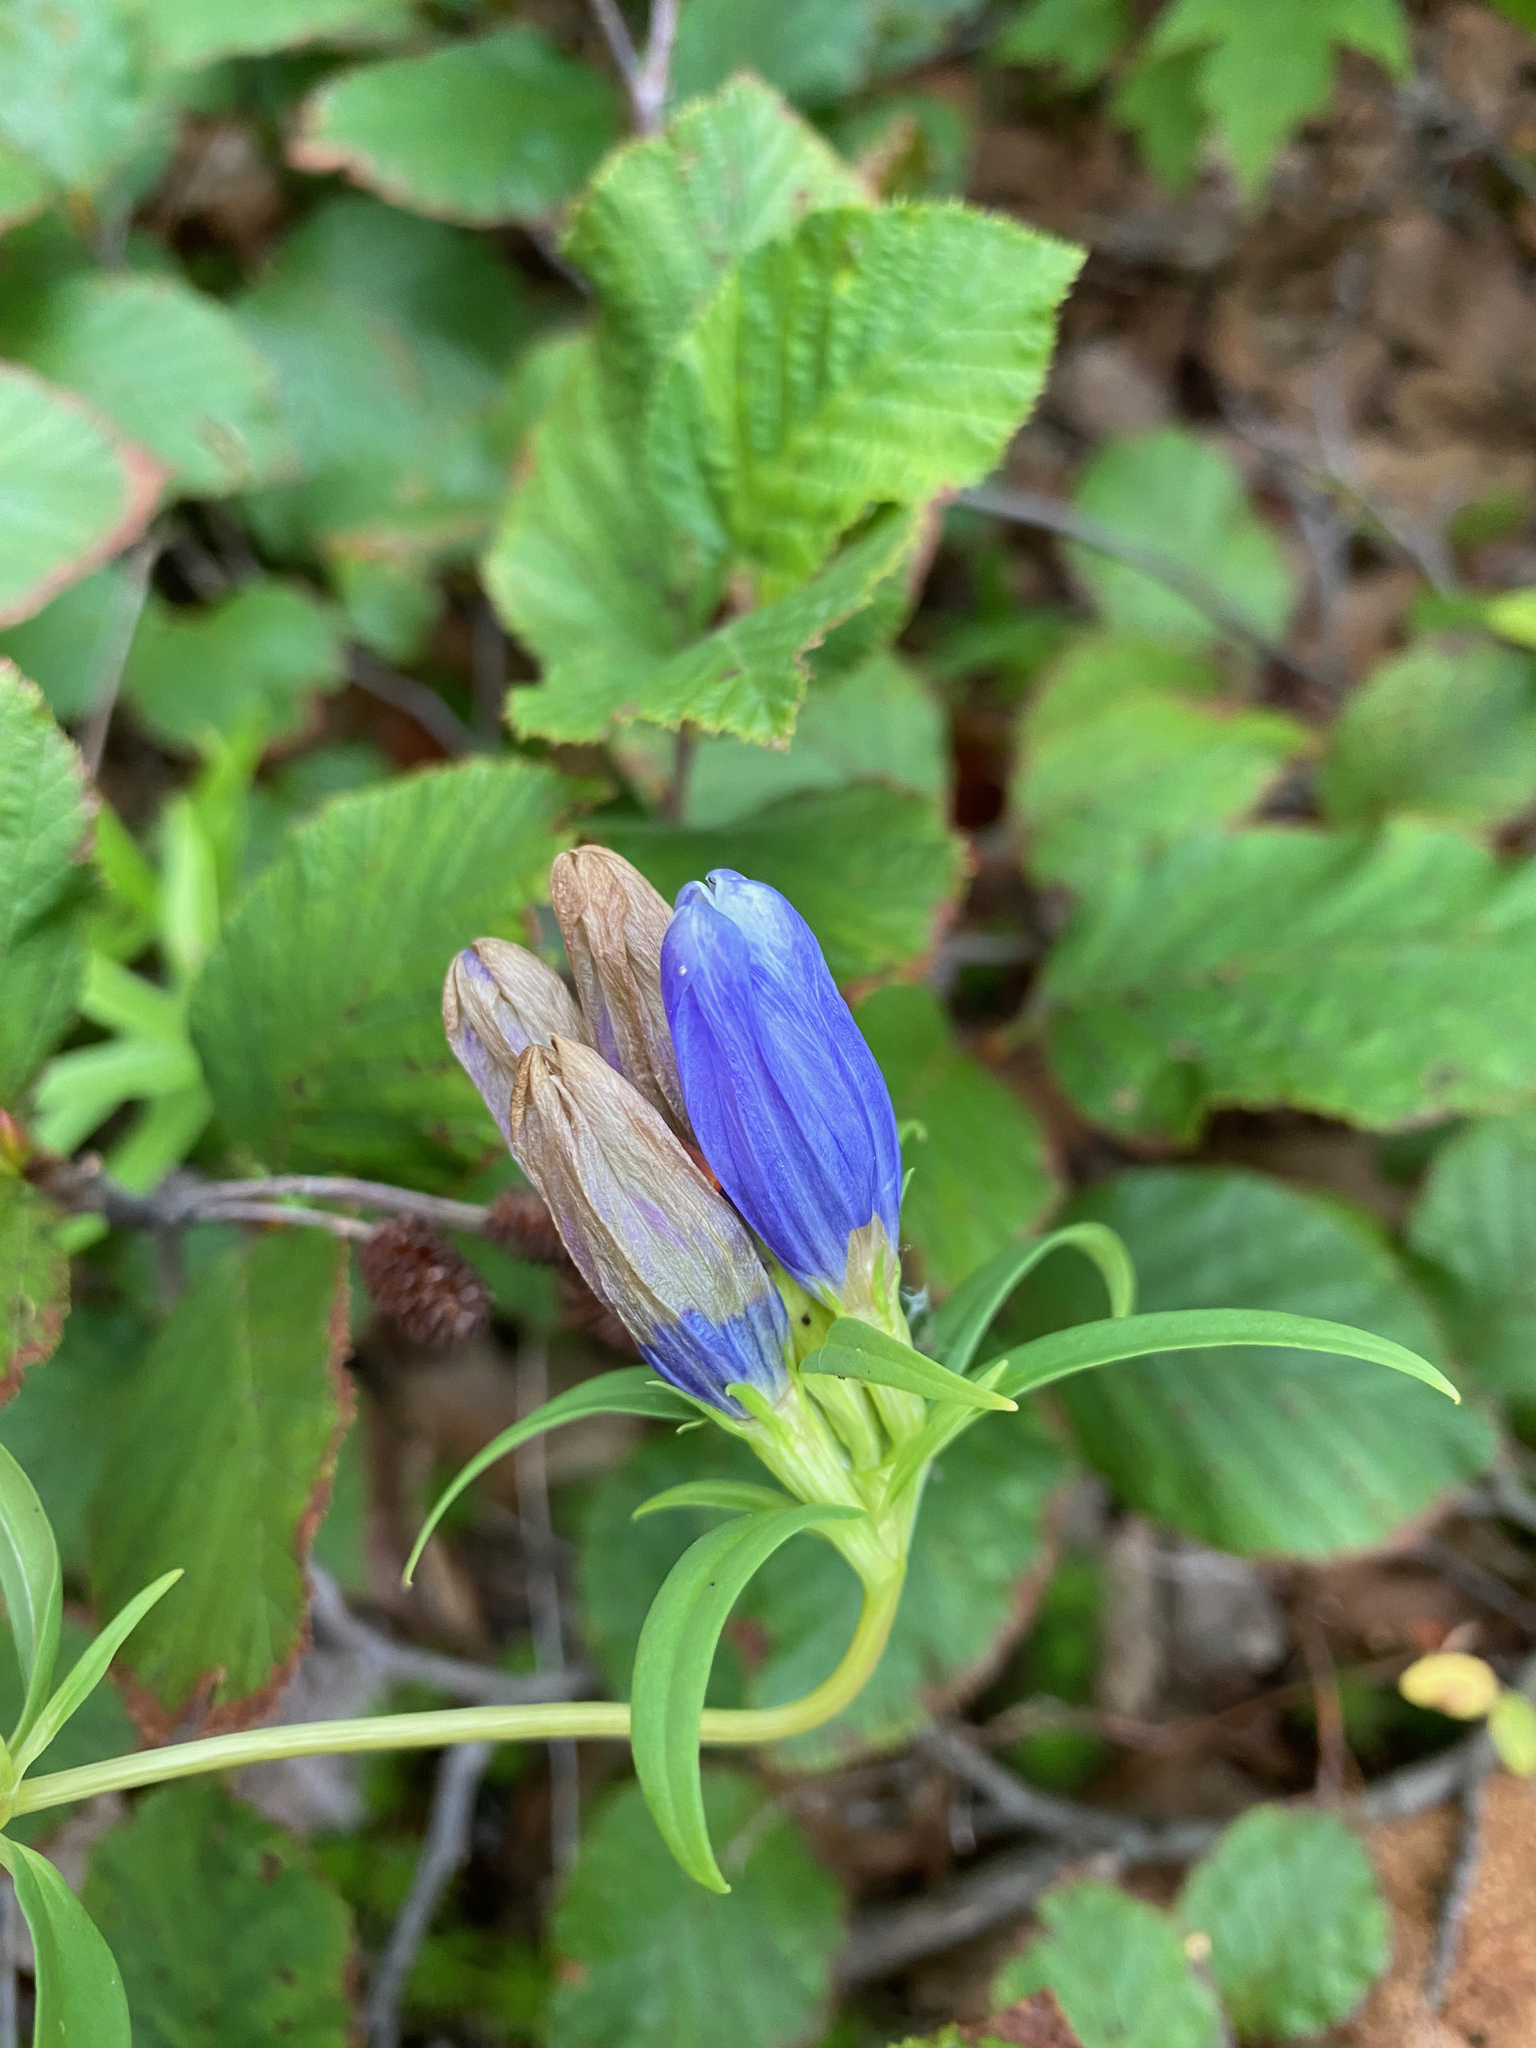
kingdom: Plantae
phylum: Tracheophyta
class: Magnoliopsida
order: Gentianales
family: Gentianaceae
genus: Gentiana
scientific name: Gentiana linearis
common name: Bastard gentian
